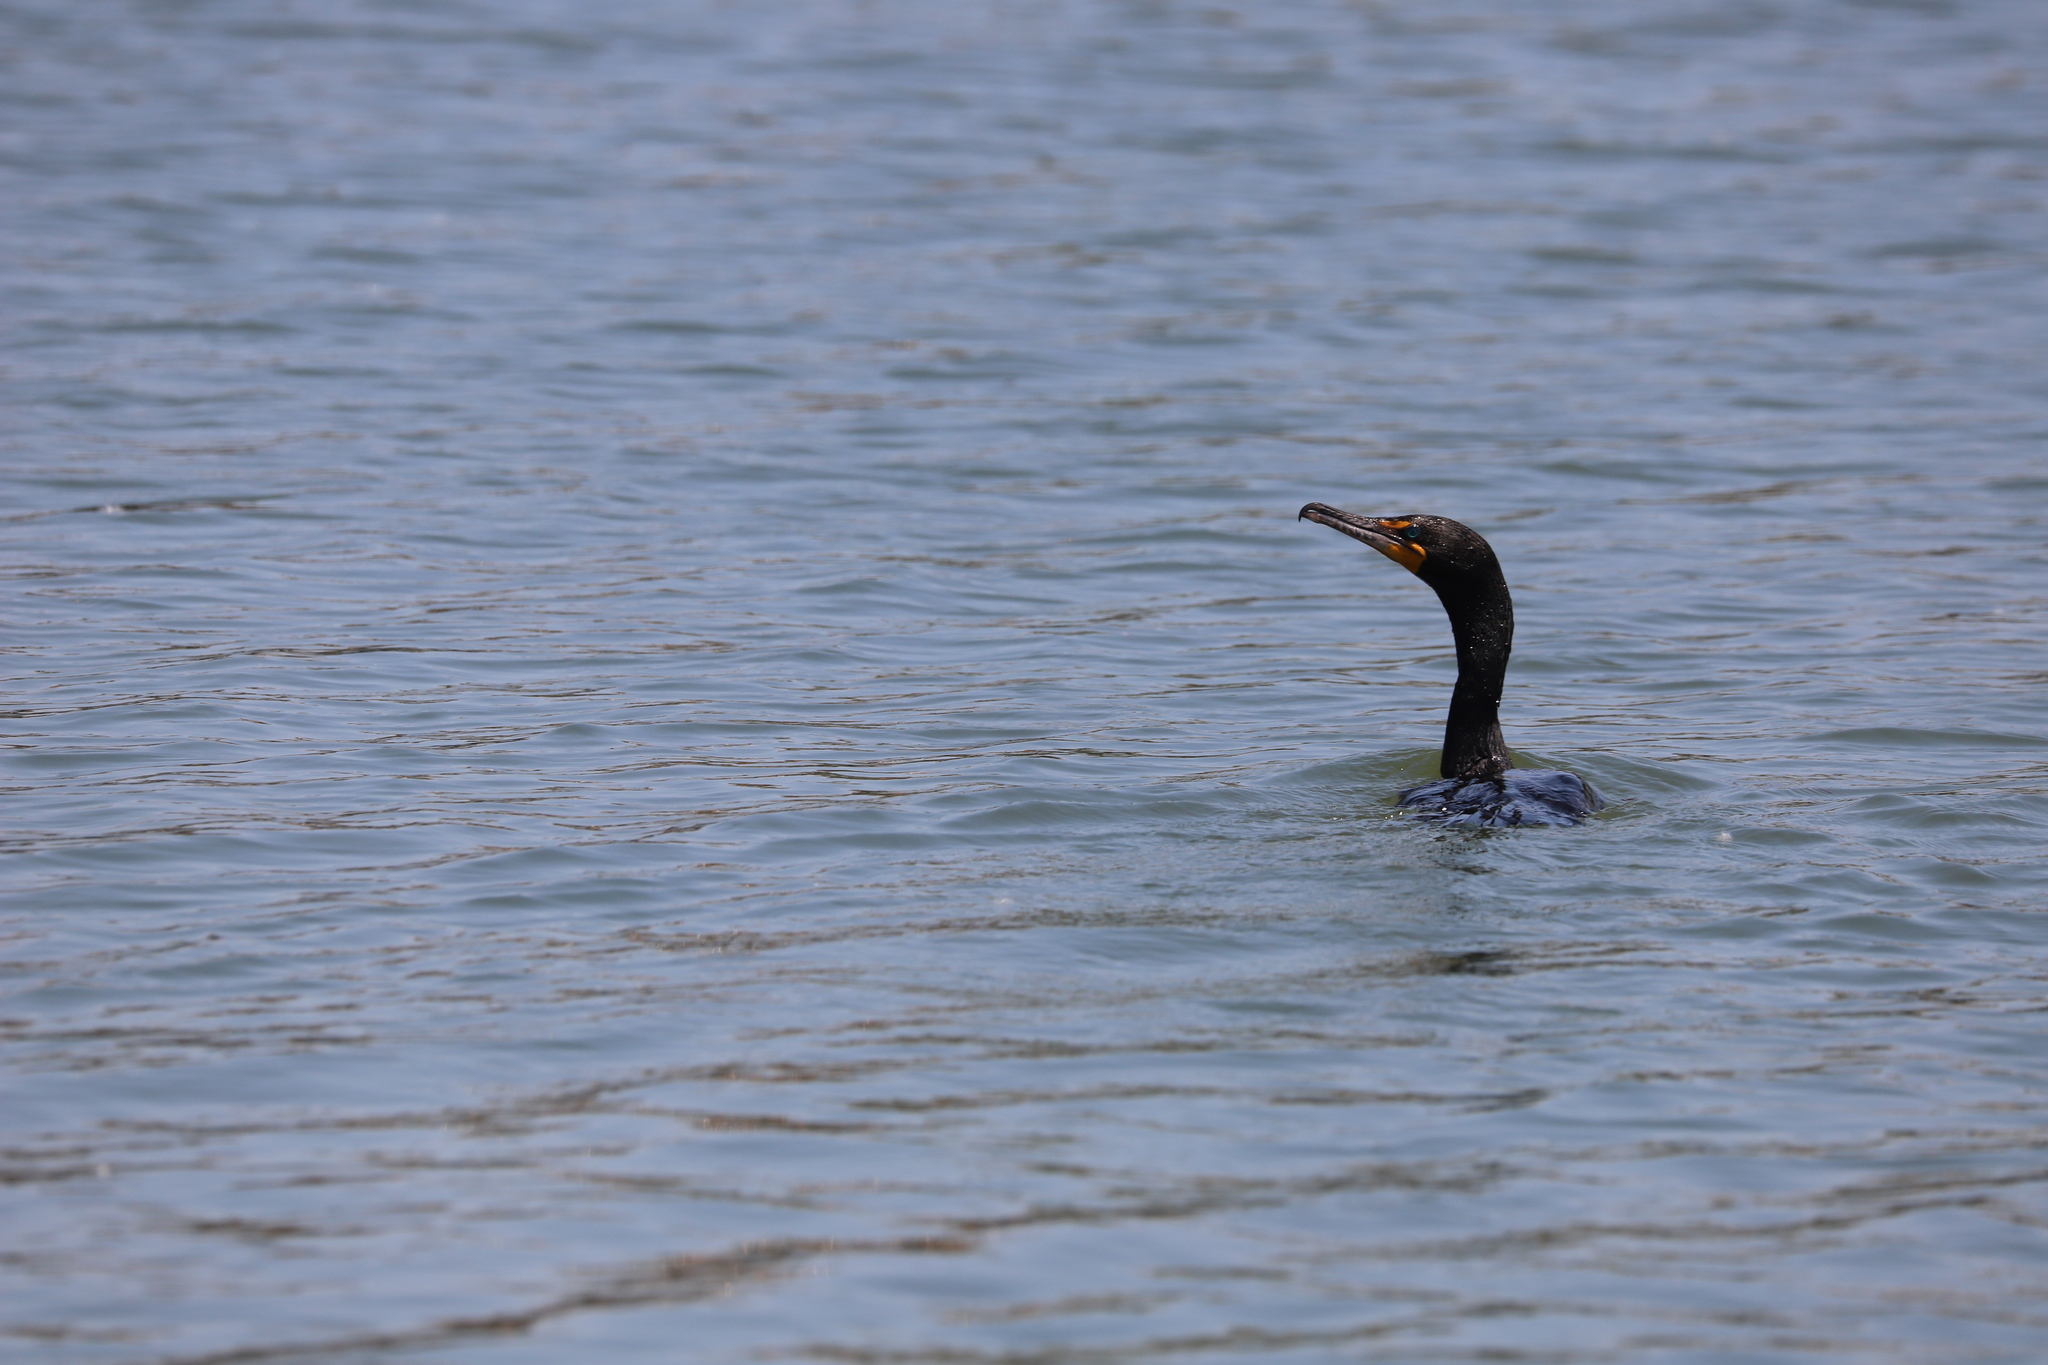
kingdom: Animalia
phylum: Chordata
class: Aves
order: Suliformes
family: Phalacrocoracidae
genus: Phalacrocorax
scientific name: Phalacrocorax auritus
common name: Double-crested cormorant
